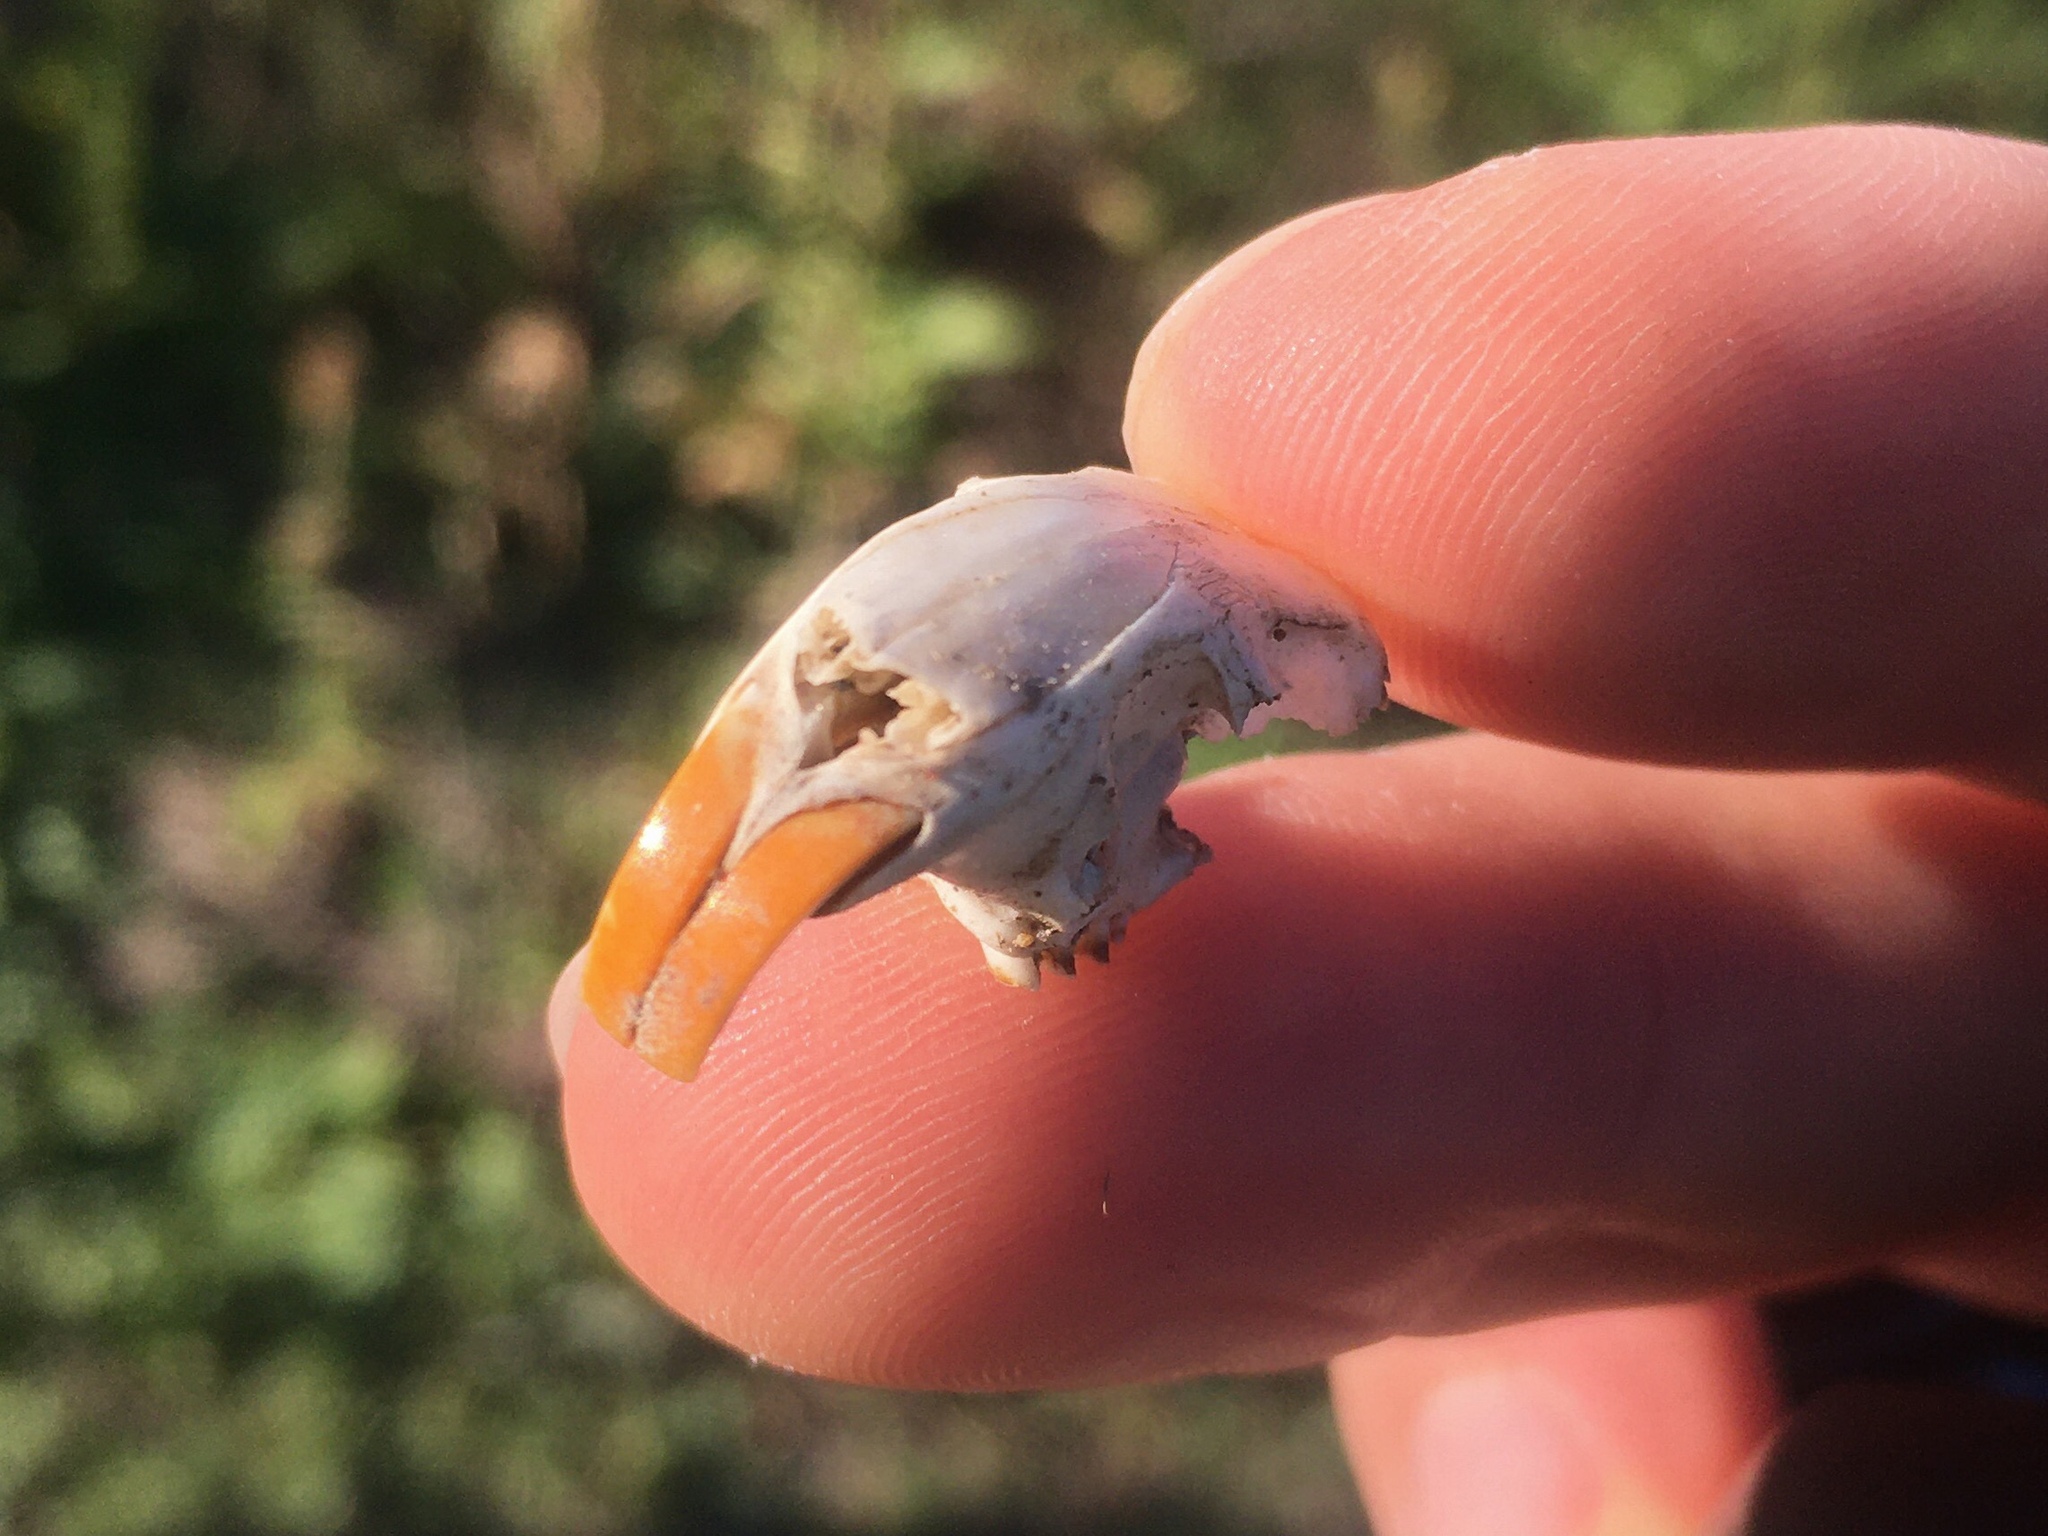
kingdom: Animalia
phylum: Chordata
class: Mammalia
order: Rodentia
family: Ctenomyidae
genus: Ctenomys
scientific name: Ctenomys talarum
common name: Talas tuco-tuco
